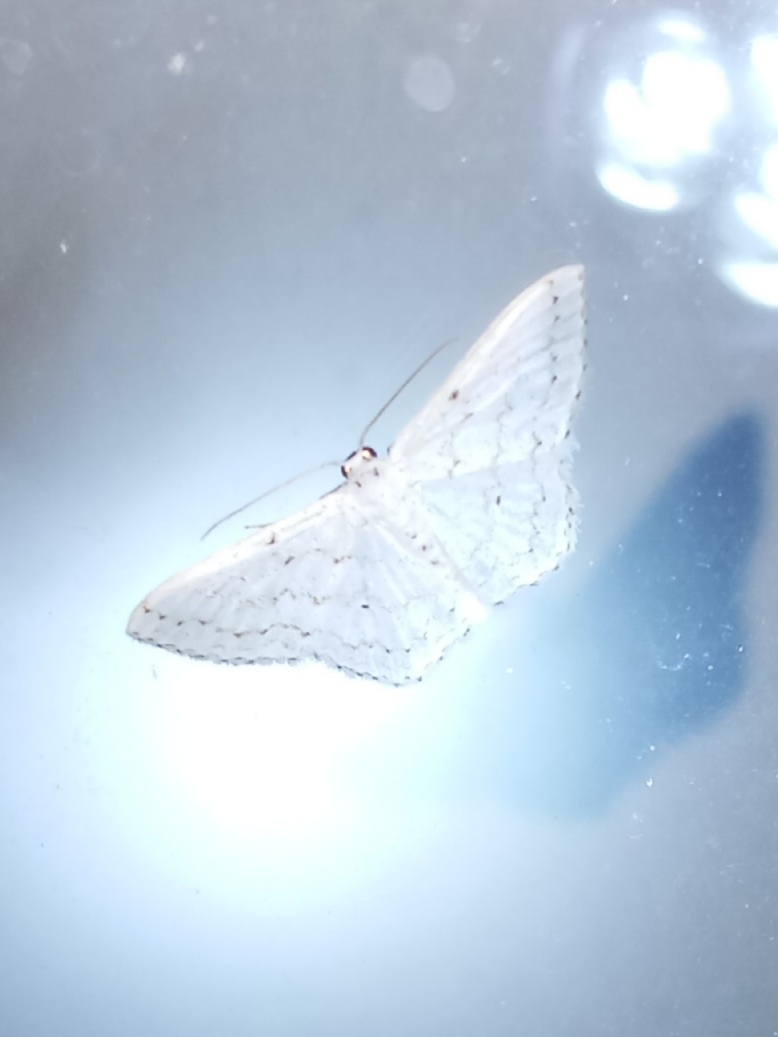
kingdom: Animalia
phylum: Arthropoda
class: Insecta
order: Lepidoptera
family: Geometridae
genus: Idaea
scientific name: Idaea tacturata
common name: Dot-lined wave
